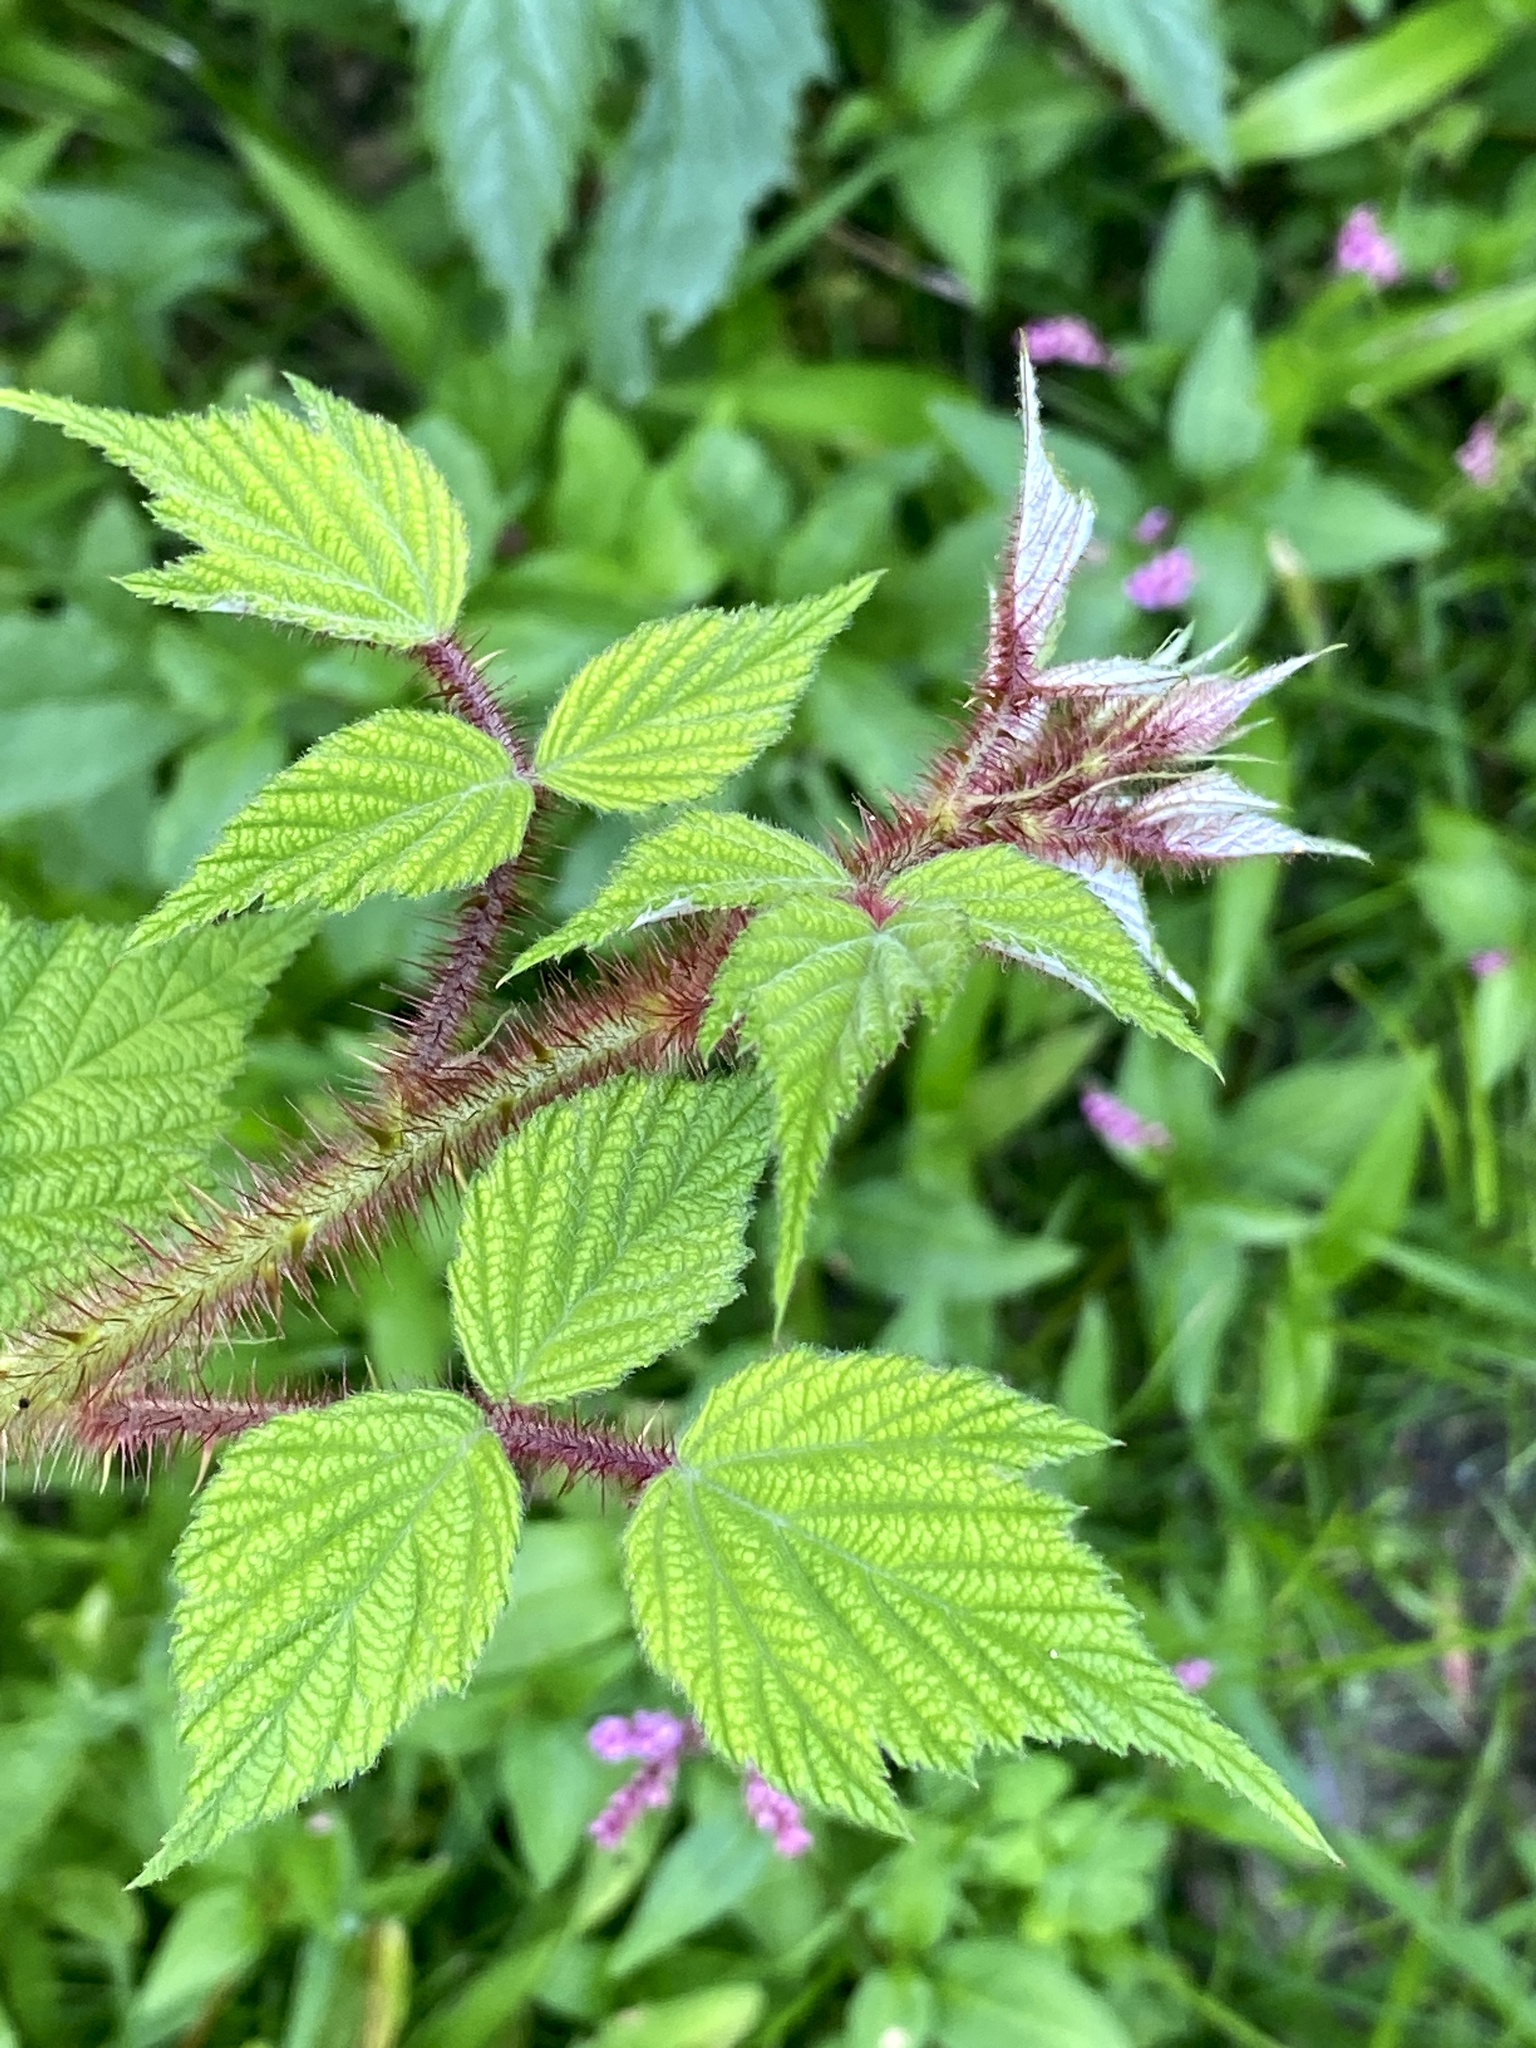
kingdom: Plantae
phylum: Tracheophyta
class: Magnoliopsida
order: Rosales
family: Rosaceae
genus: Rubus
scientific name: Rubus phoenicolasius
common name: Japanese wineberry
